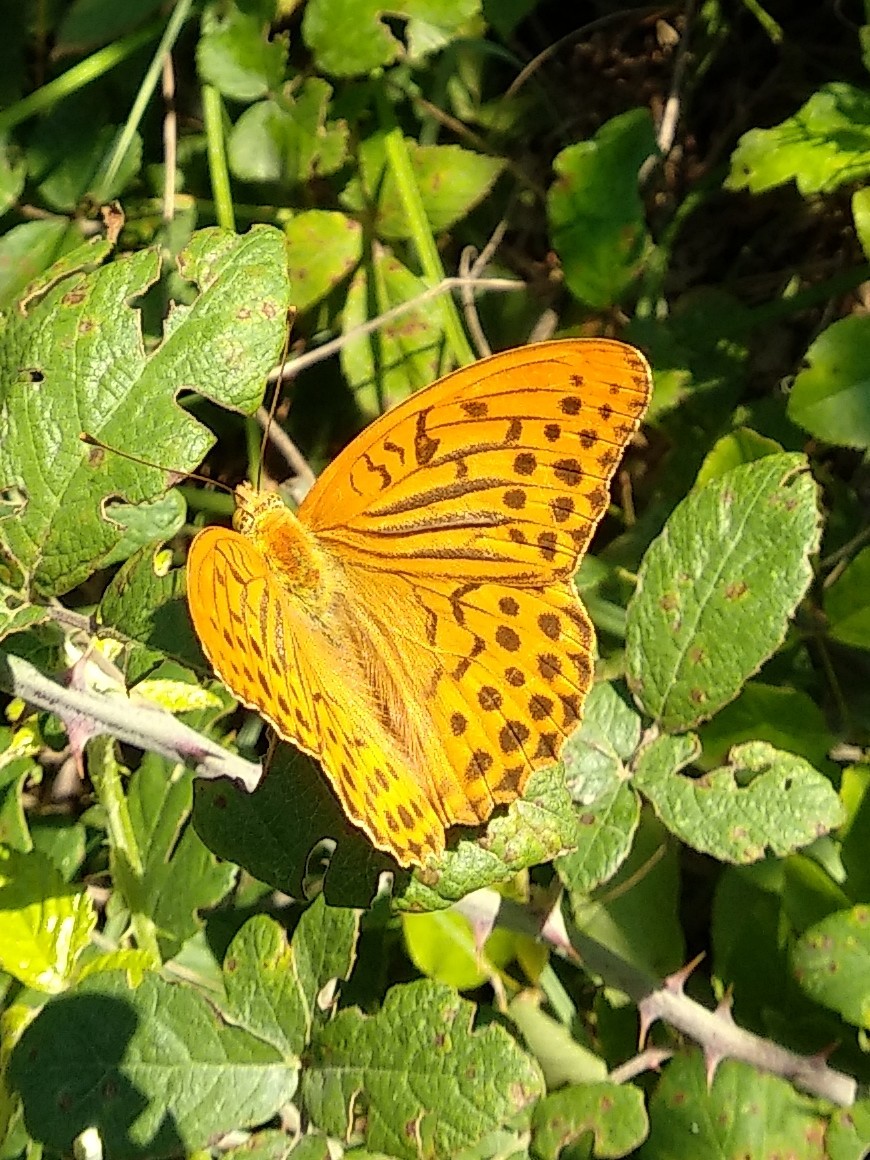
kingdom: Animalia
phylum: Arthropoda
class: Insecta
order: Lepidoptera
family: Nymphalidae
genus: Argynnis
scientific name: Argynnis paphia
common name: Silver-washed fritillary
